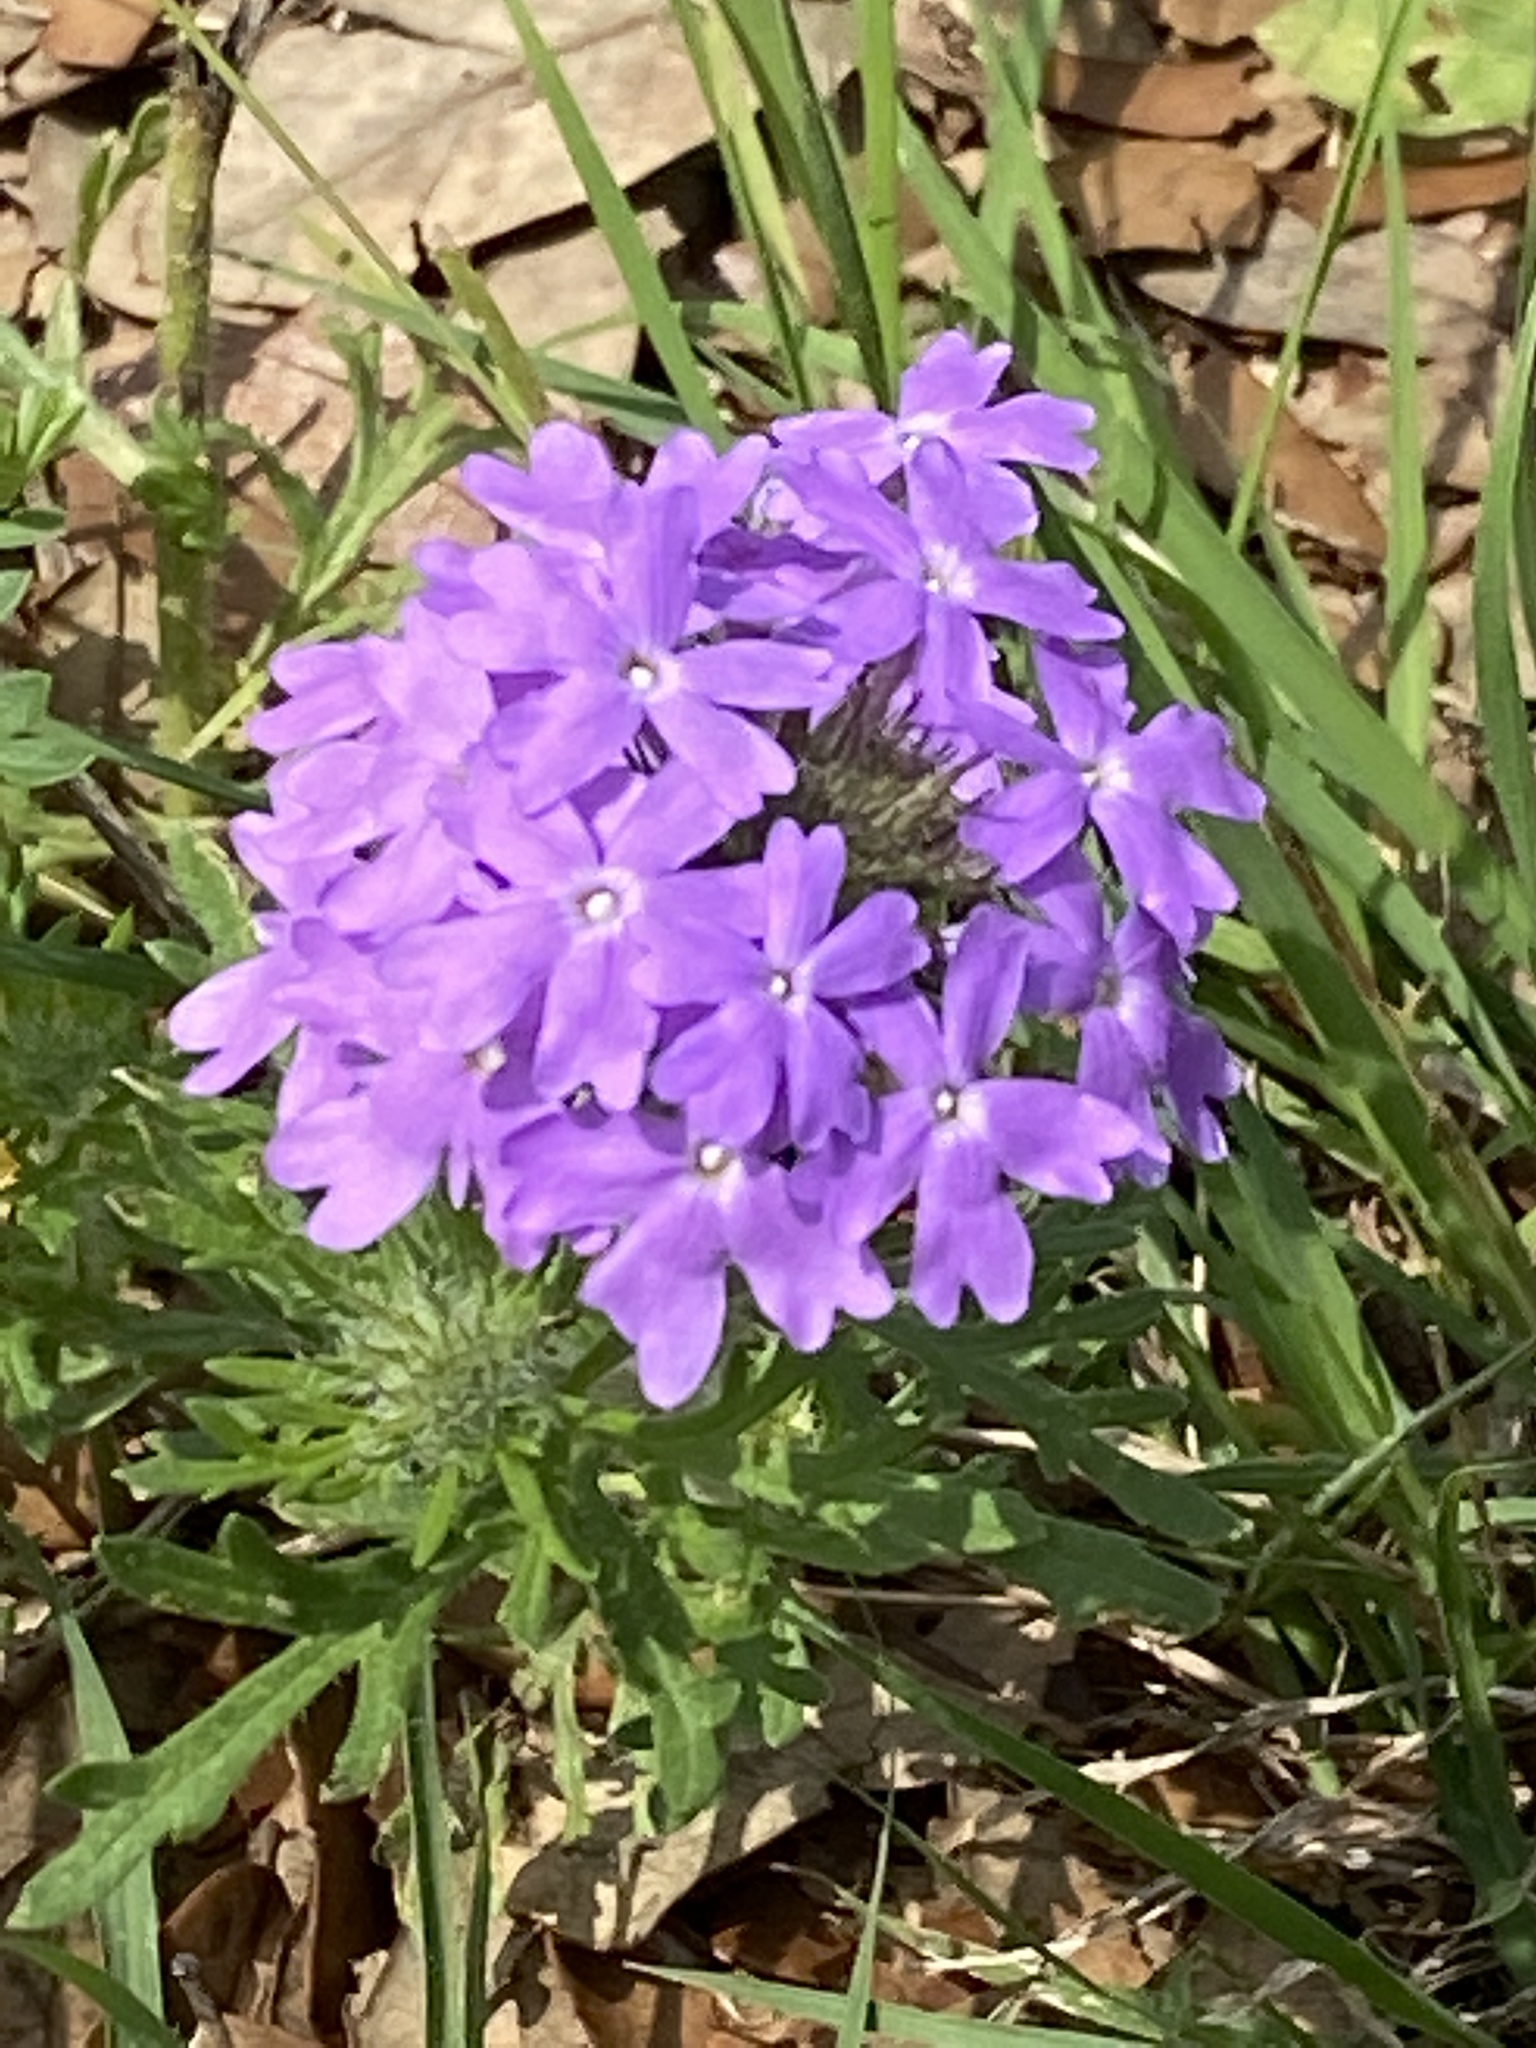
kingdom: Plantae
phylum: Tracheophyta
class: Magnoliopsida
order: Lamiales
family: Verbenaceae
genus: Verbena
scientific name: Verbena bipinnatifida
